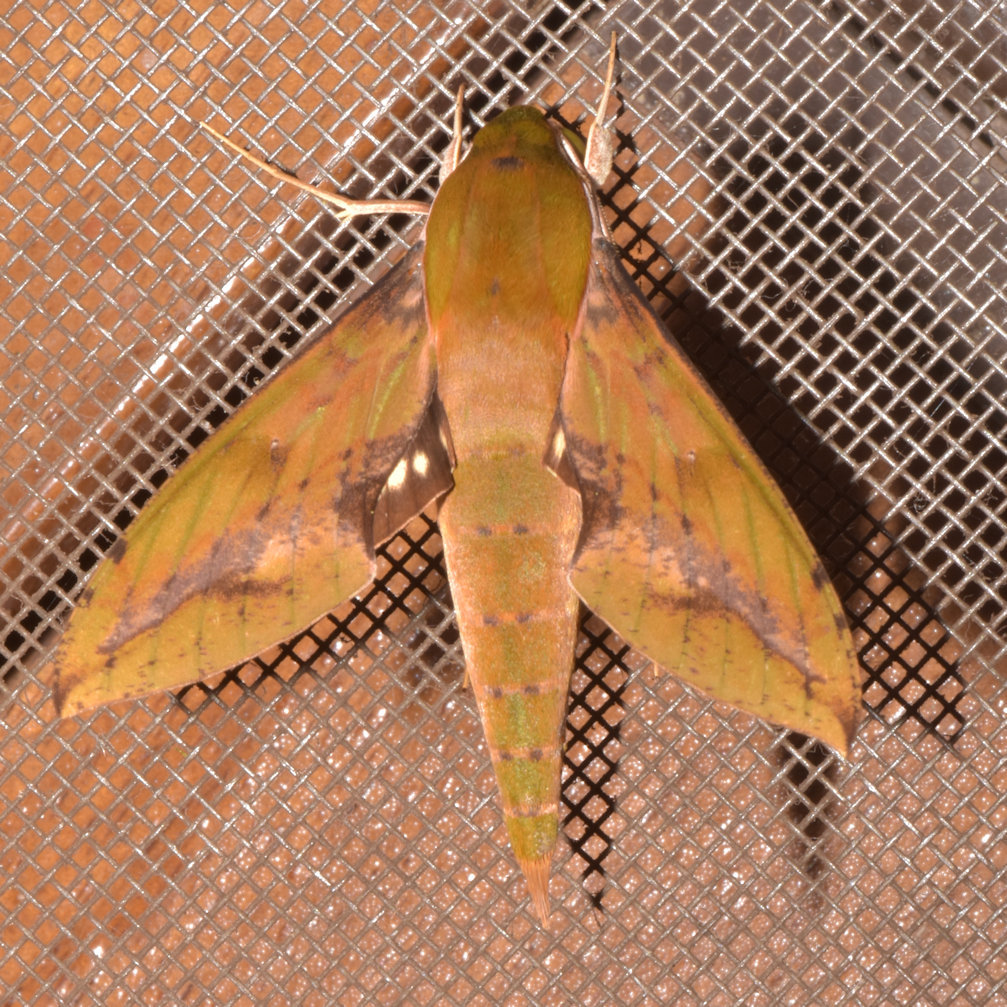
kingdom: Animalia
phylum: Arthropoda
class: Insecta
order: Lepidoptera
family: Sphingidae
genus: Xylophanes
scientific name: Xylophanes chiron
